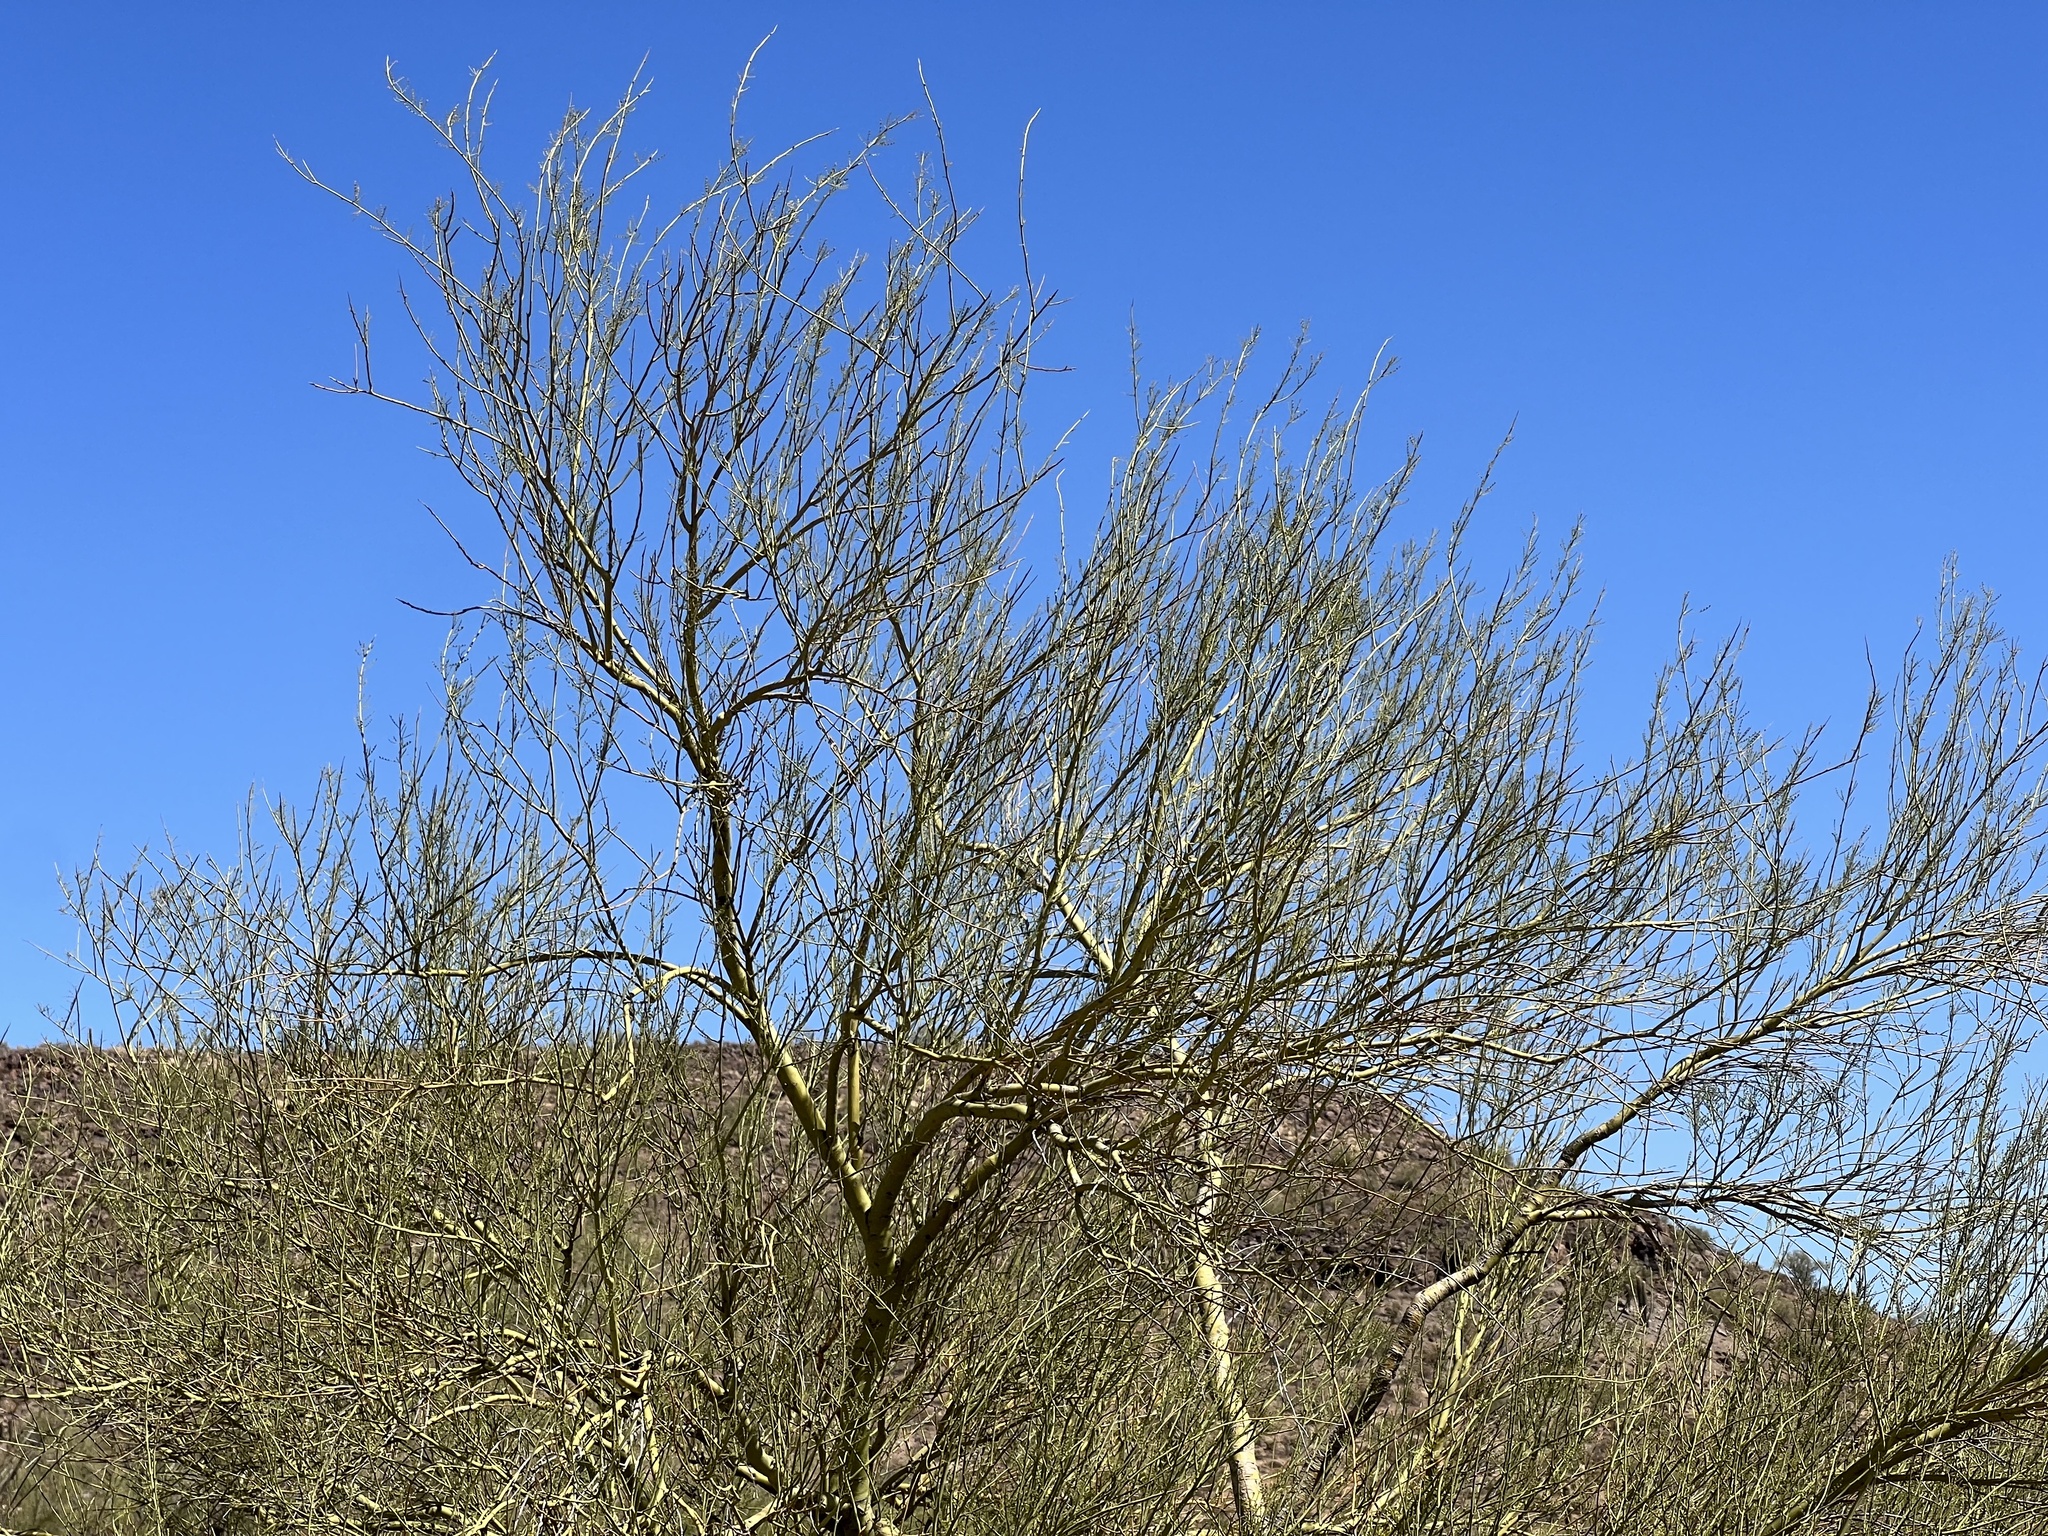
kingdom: Plantae
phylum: Tracheophyta
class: Magnoliopsida
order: Fabales
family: Fabaceae
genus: Parkinsonia
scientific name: Parkinsonia microphylla
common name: Yellow paloverde
